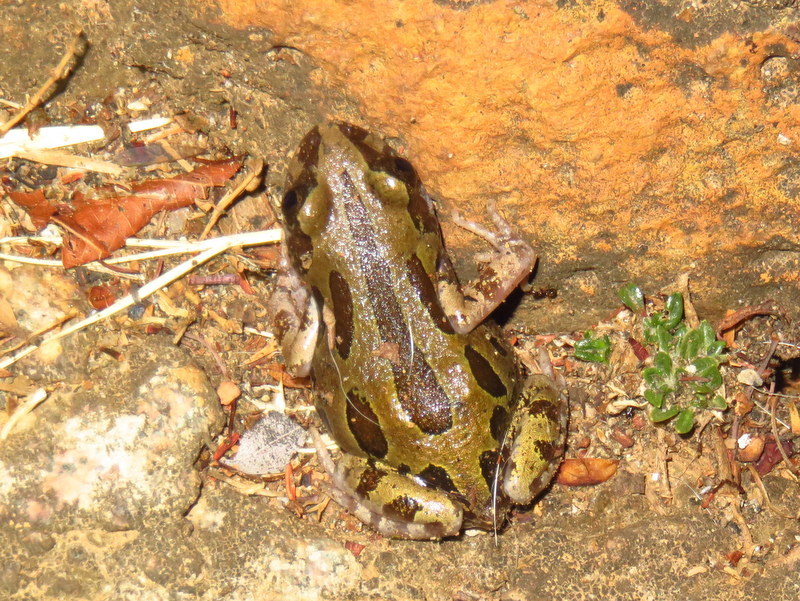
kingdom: Animalia
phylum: Chordata
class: Amphibia
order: Anura
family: Hyperoliidae
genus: Kassina
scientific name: Kassina senegalensis
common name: Senegal land frog
